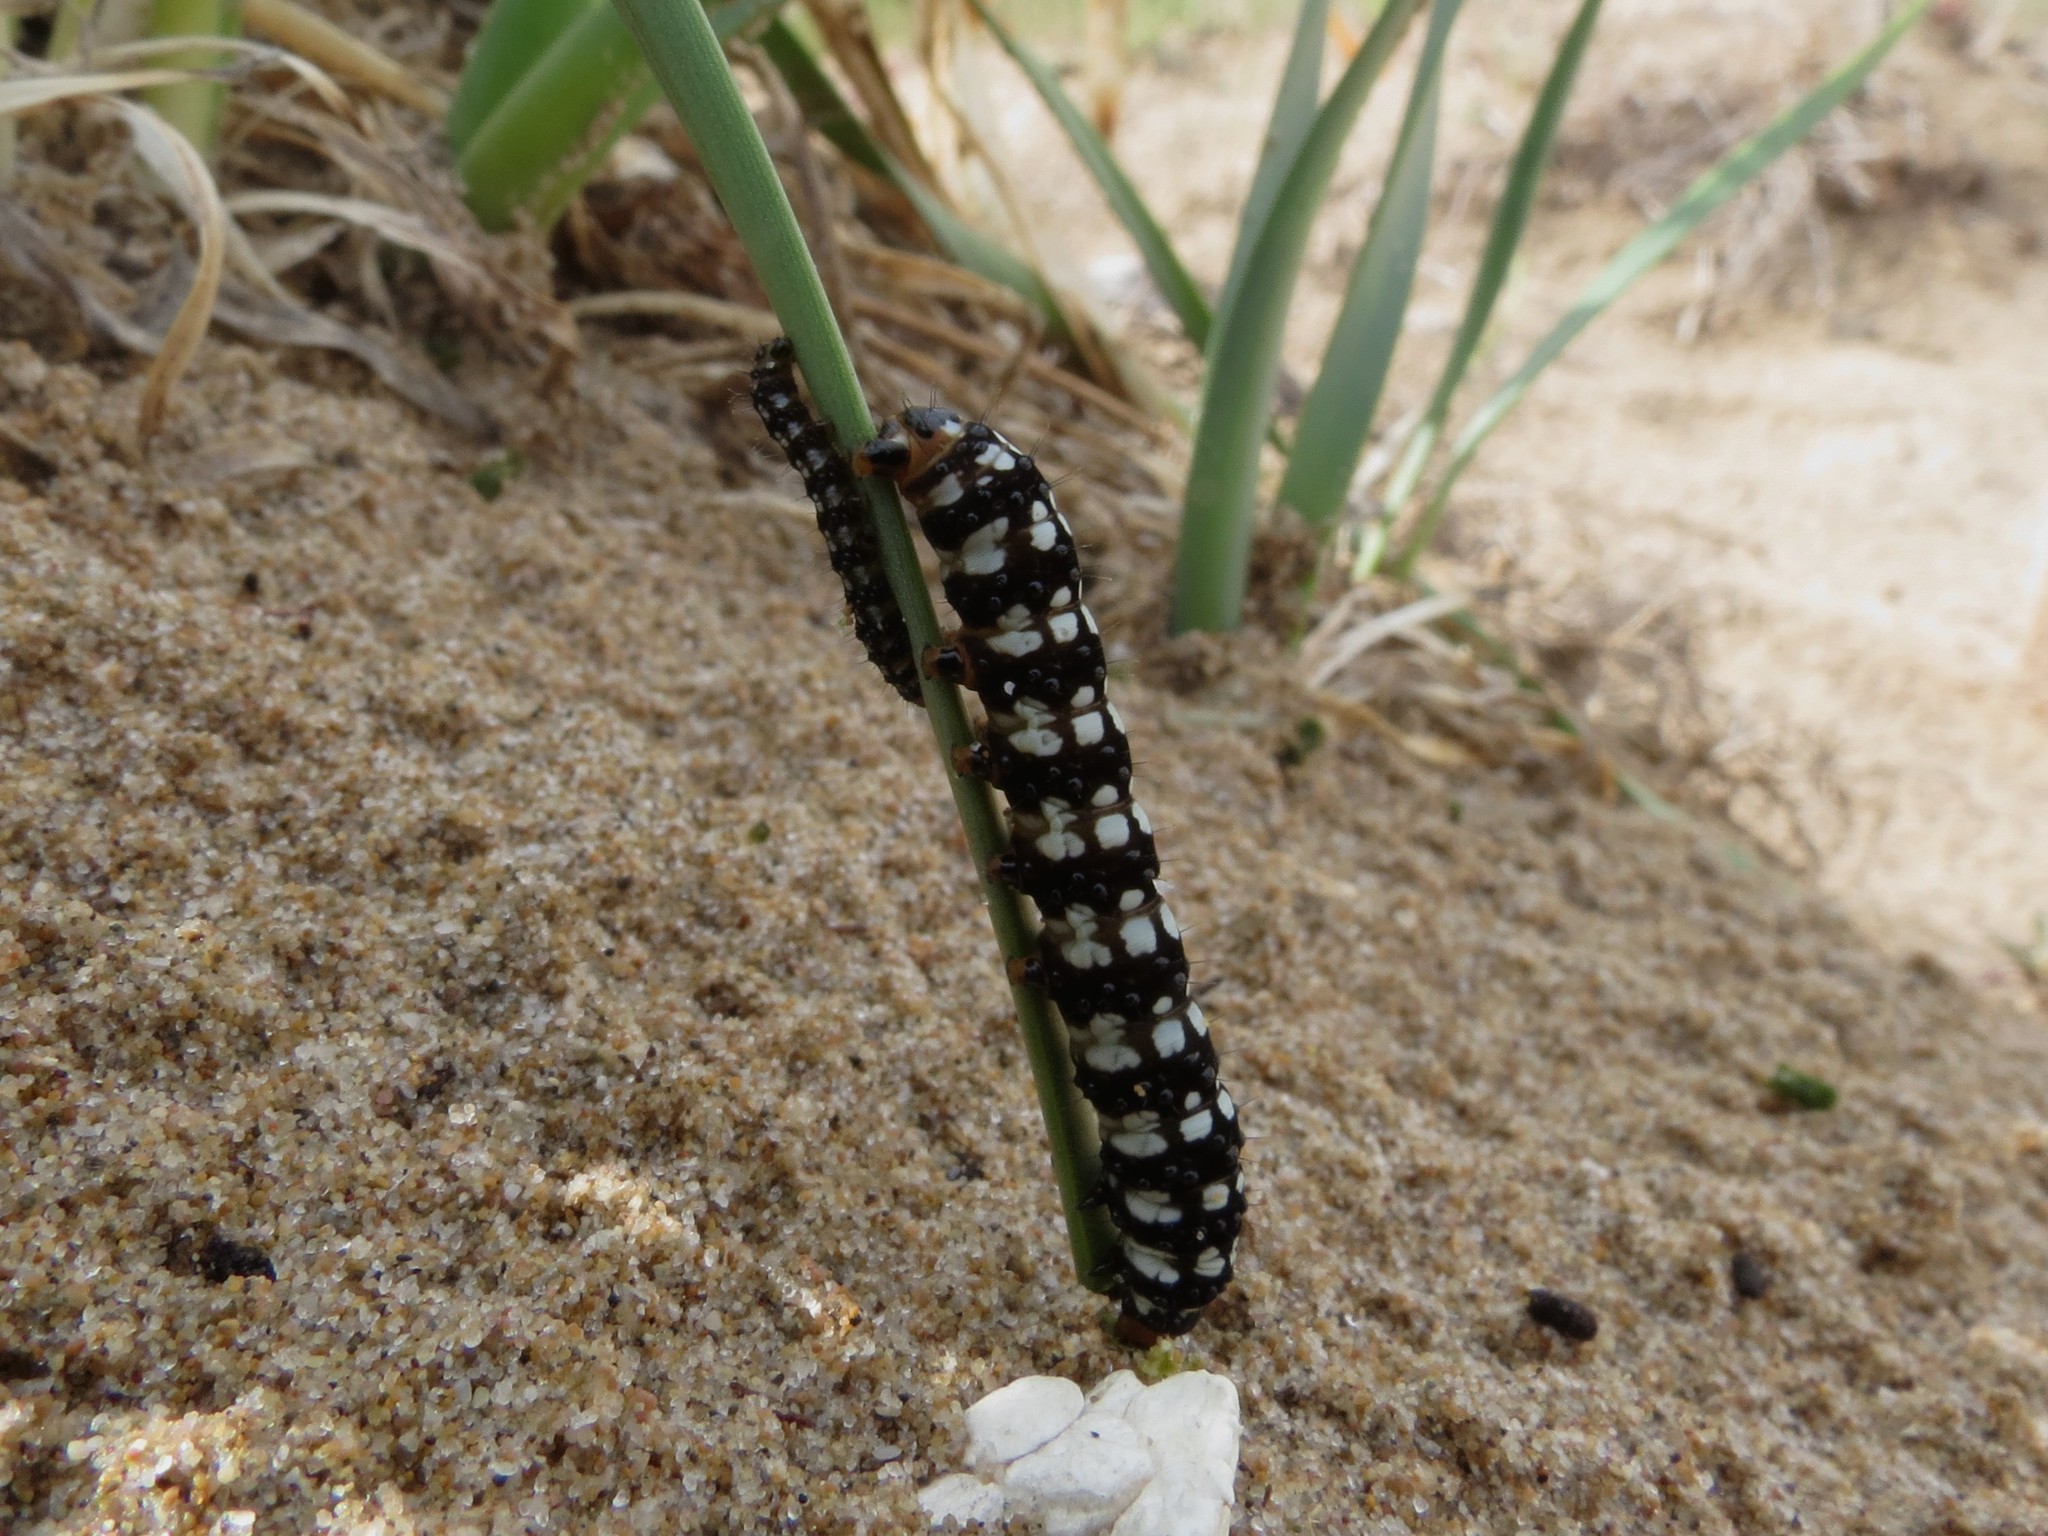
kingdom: Animalia
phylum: Arthropoda
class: Insecta
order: Lepidoptera
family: Noctuidae
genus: Brithys
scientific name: Brithys crini
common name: Kew arches
